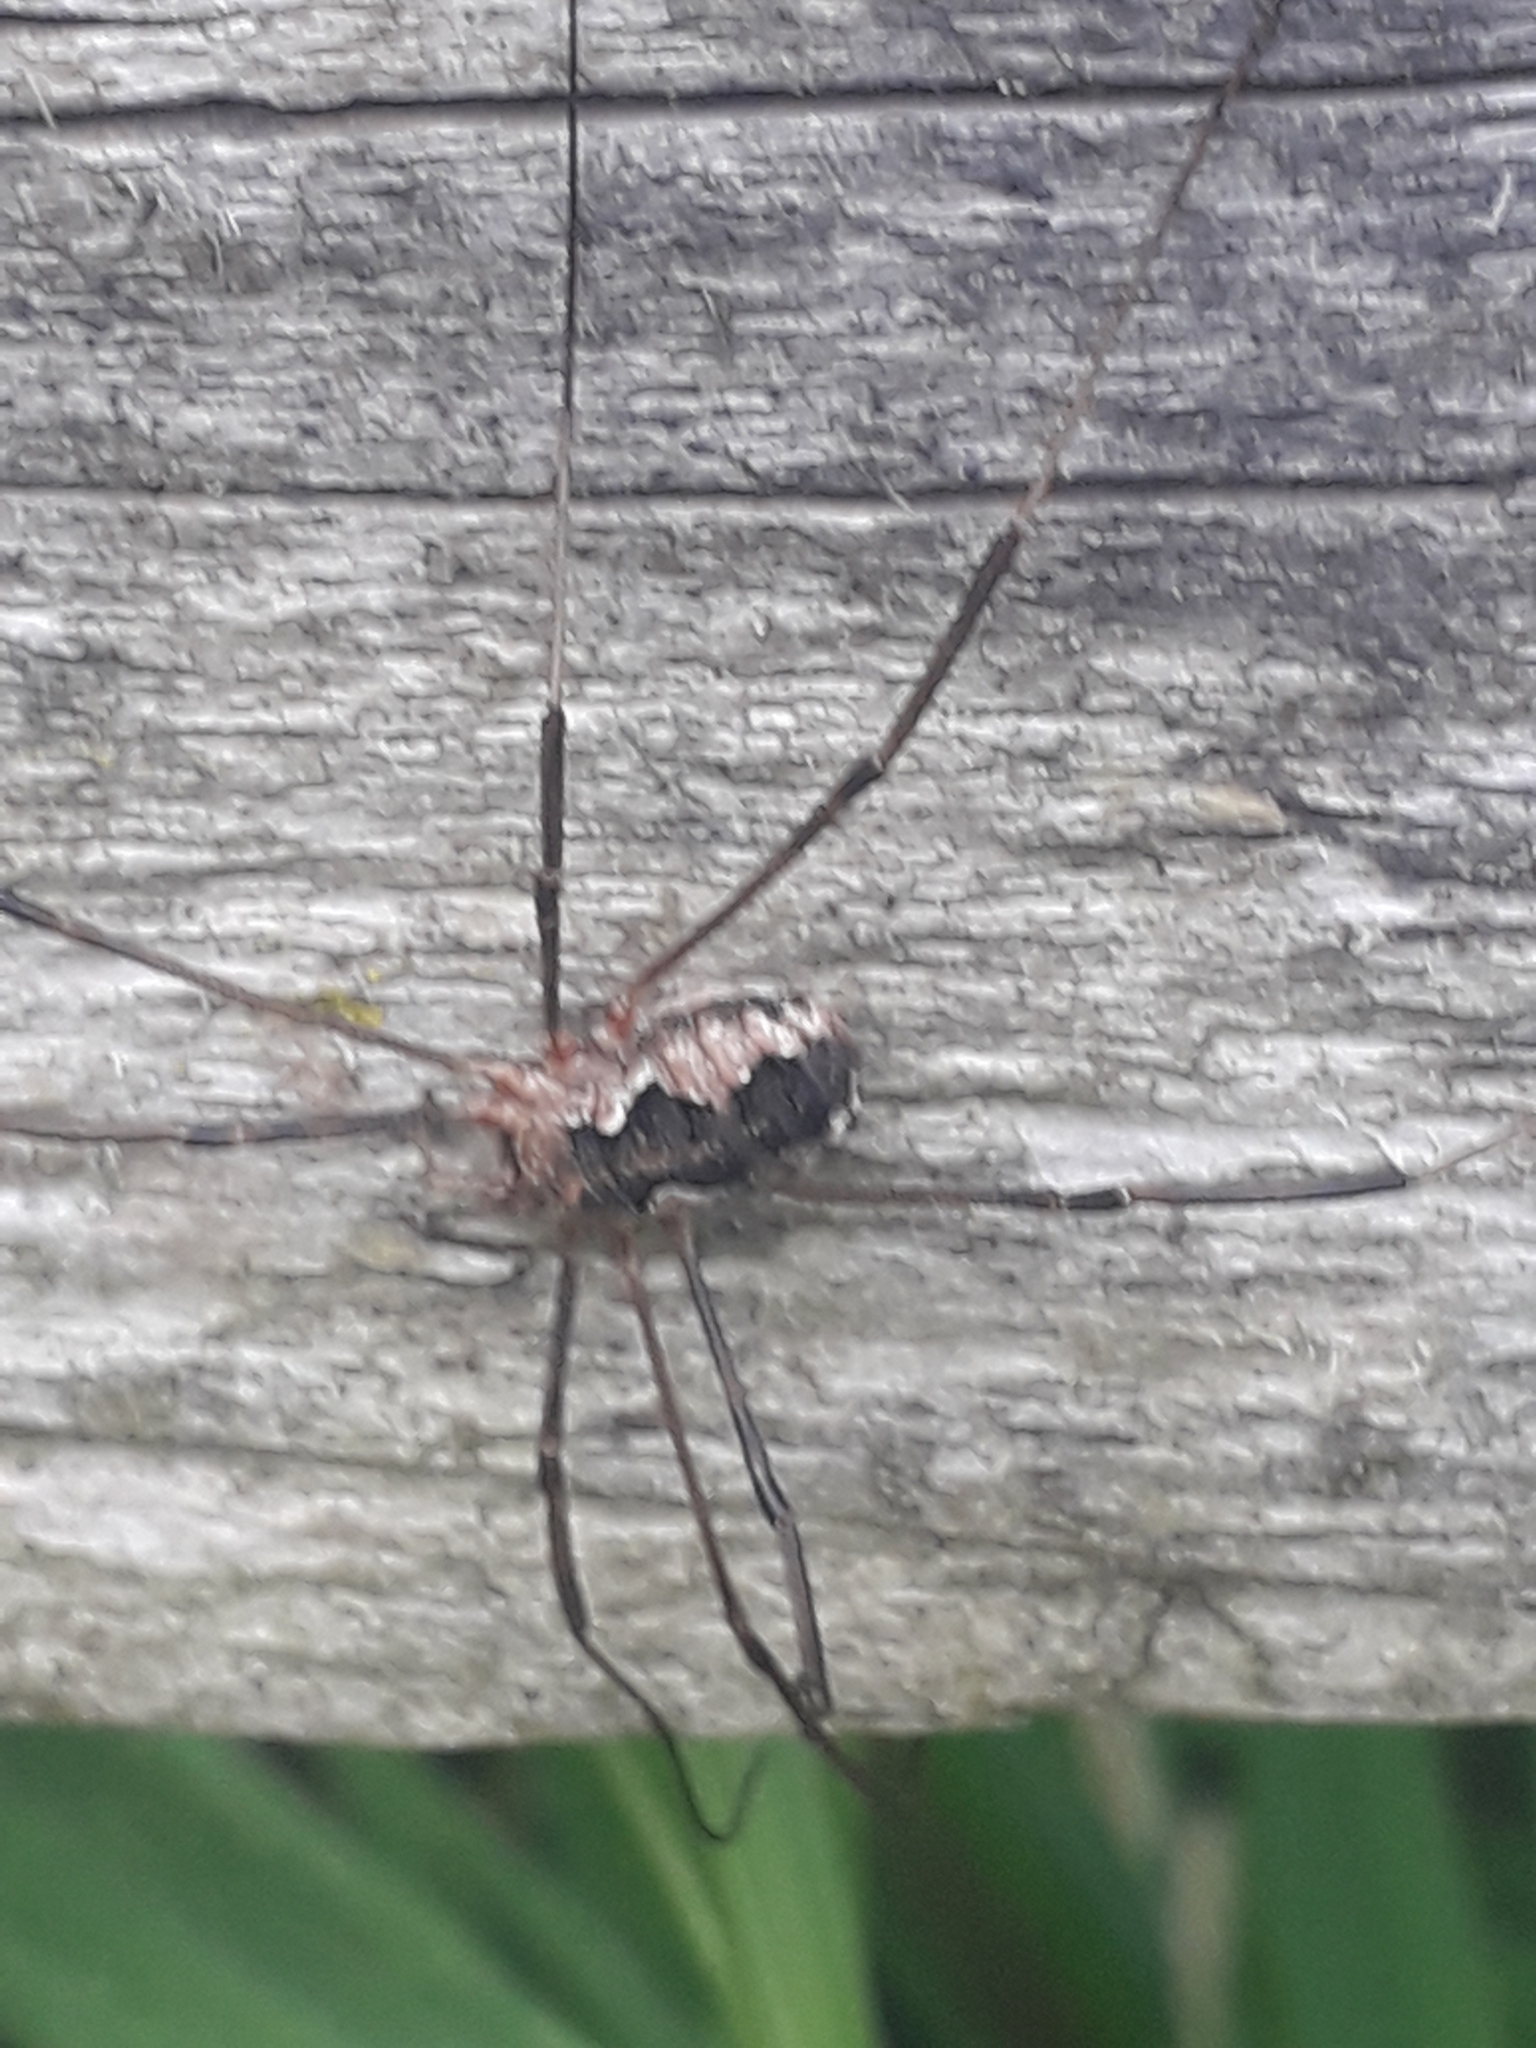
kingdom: Animalia
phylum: Arthropoda
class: Arachnida
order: Opiliones
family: Phalangiidae
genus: Phalangium
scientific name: Phalangium opilio
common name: Daddy longleg
